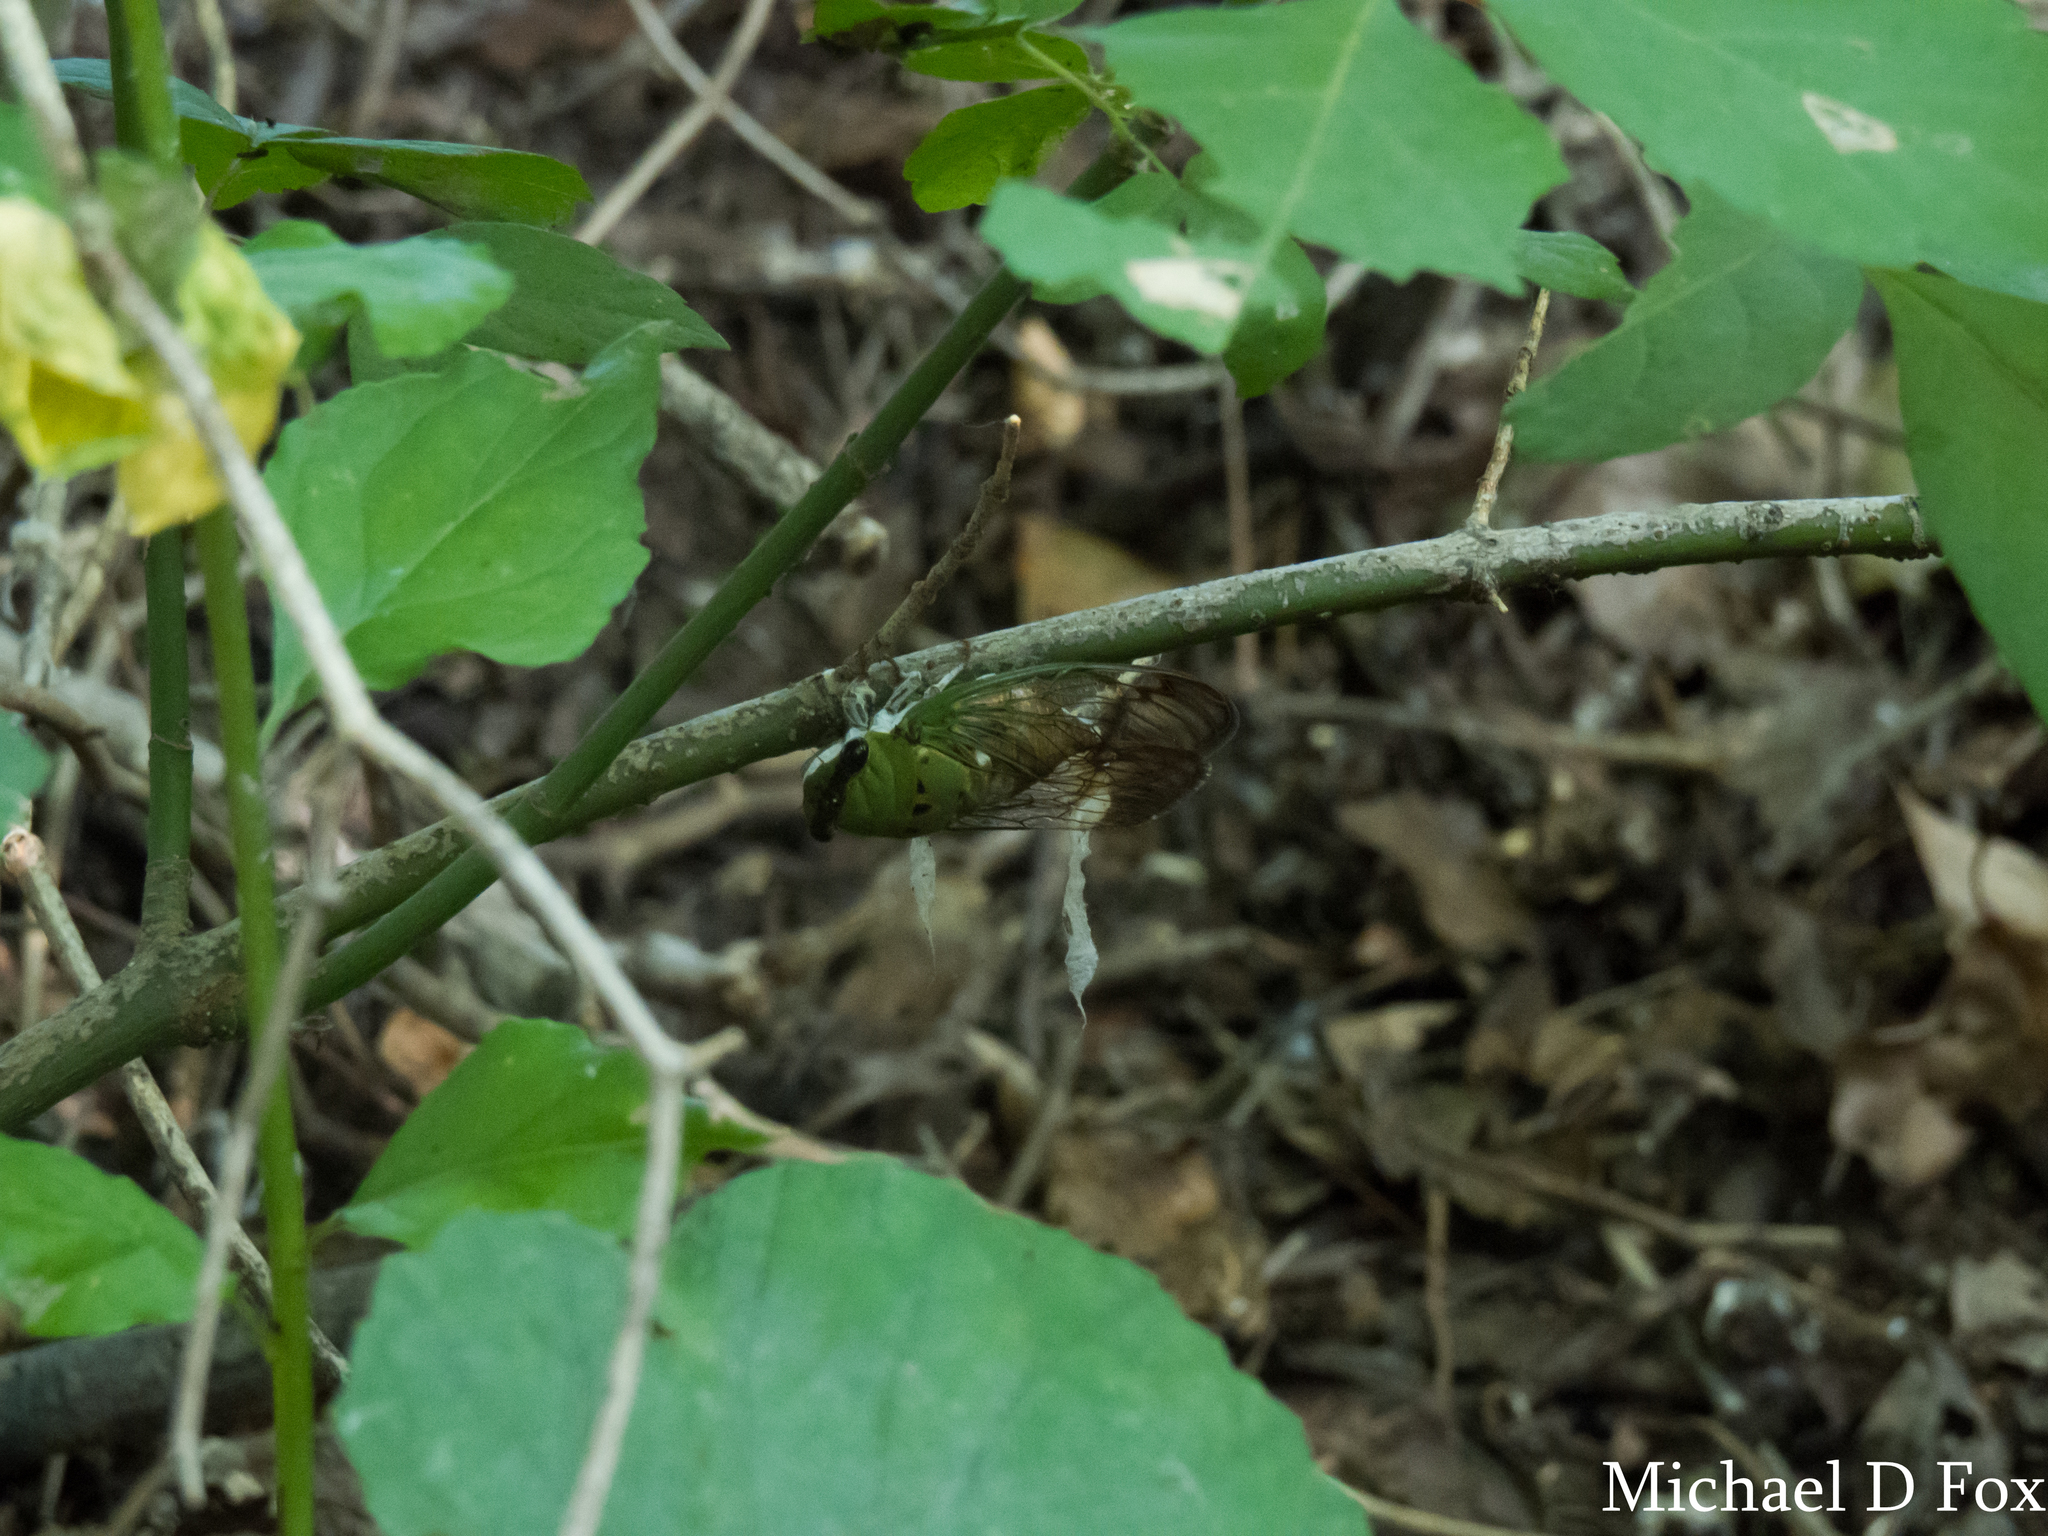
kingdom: Animalia
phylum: Arthropoda
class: Insecta
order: Hemiptera
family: Cicadidae
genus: Neotibicen
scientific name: Neotibicen superbus
